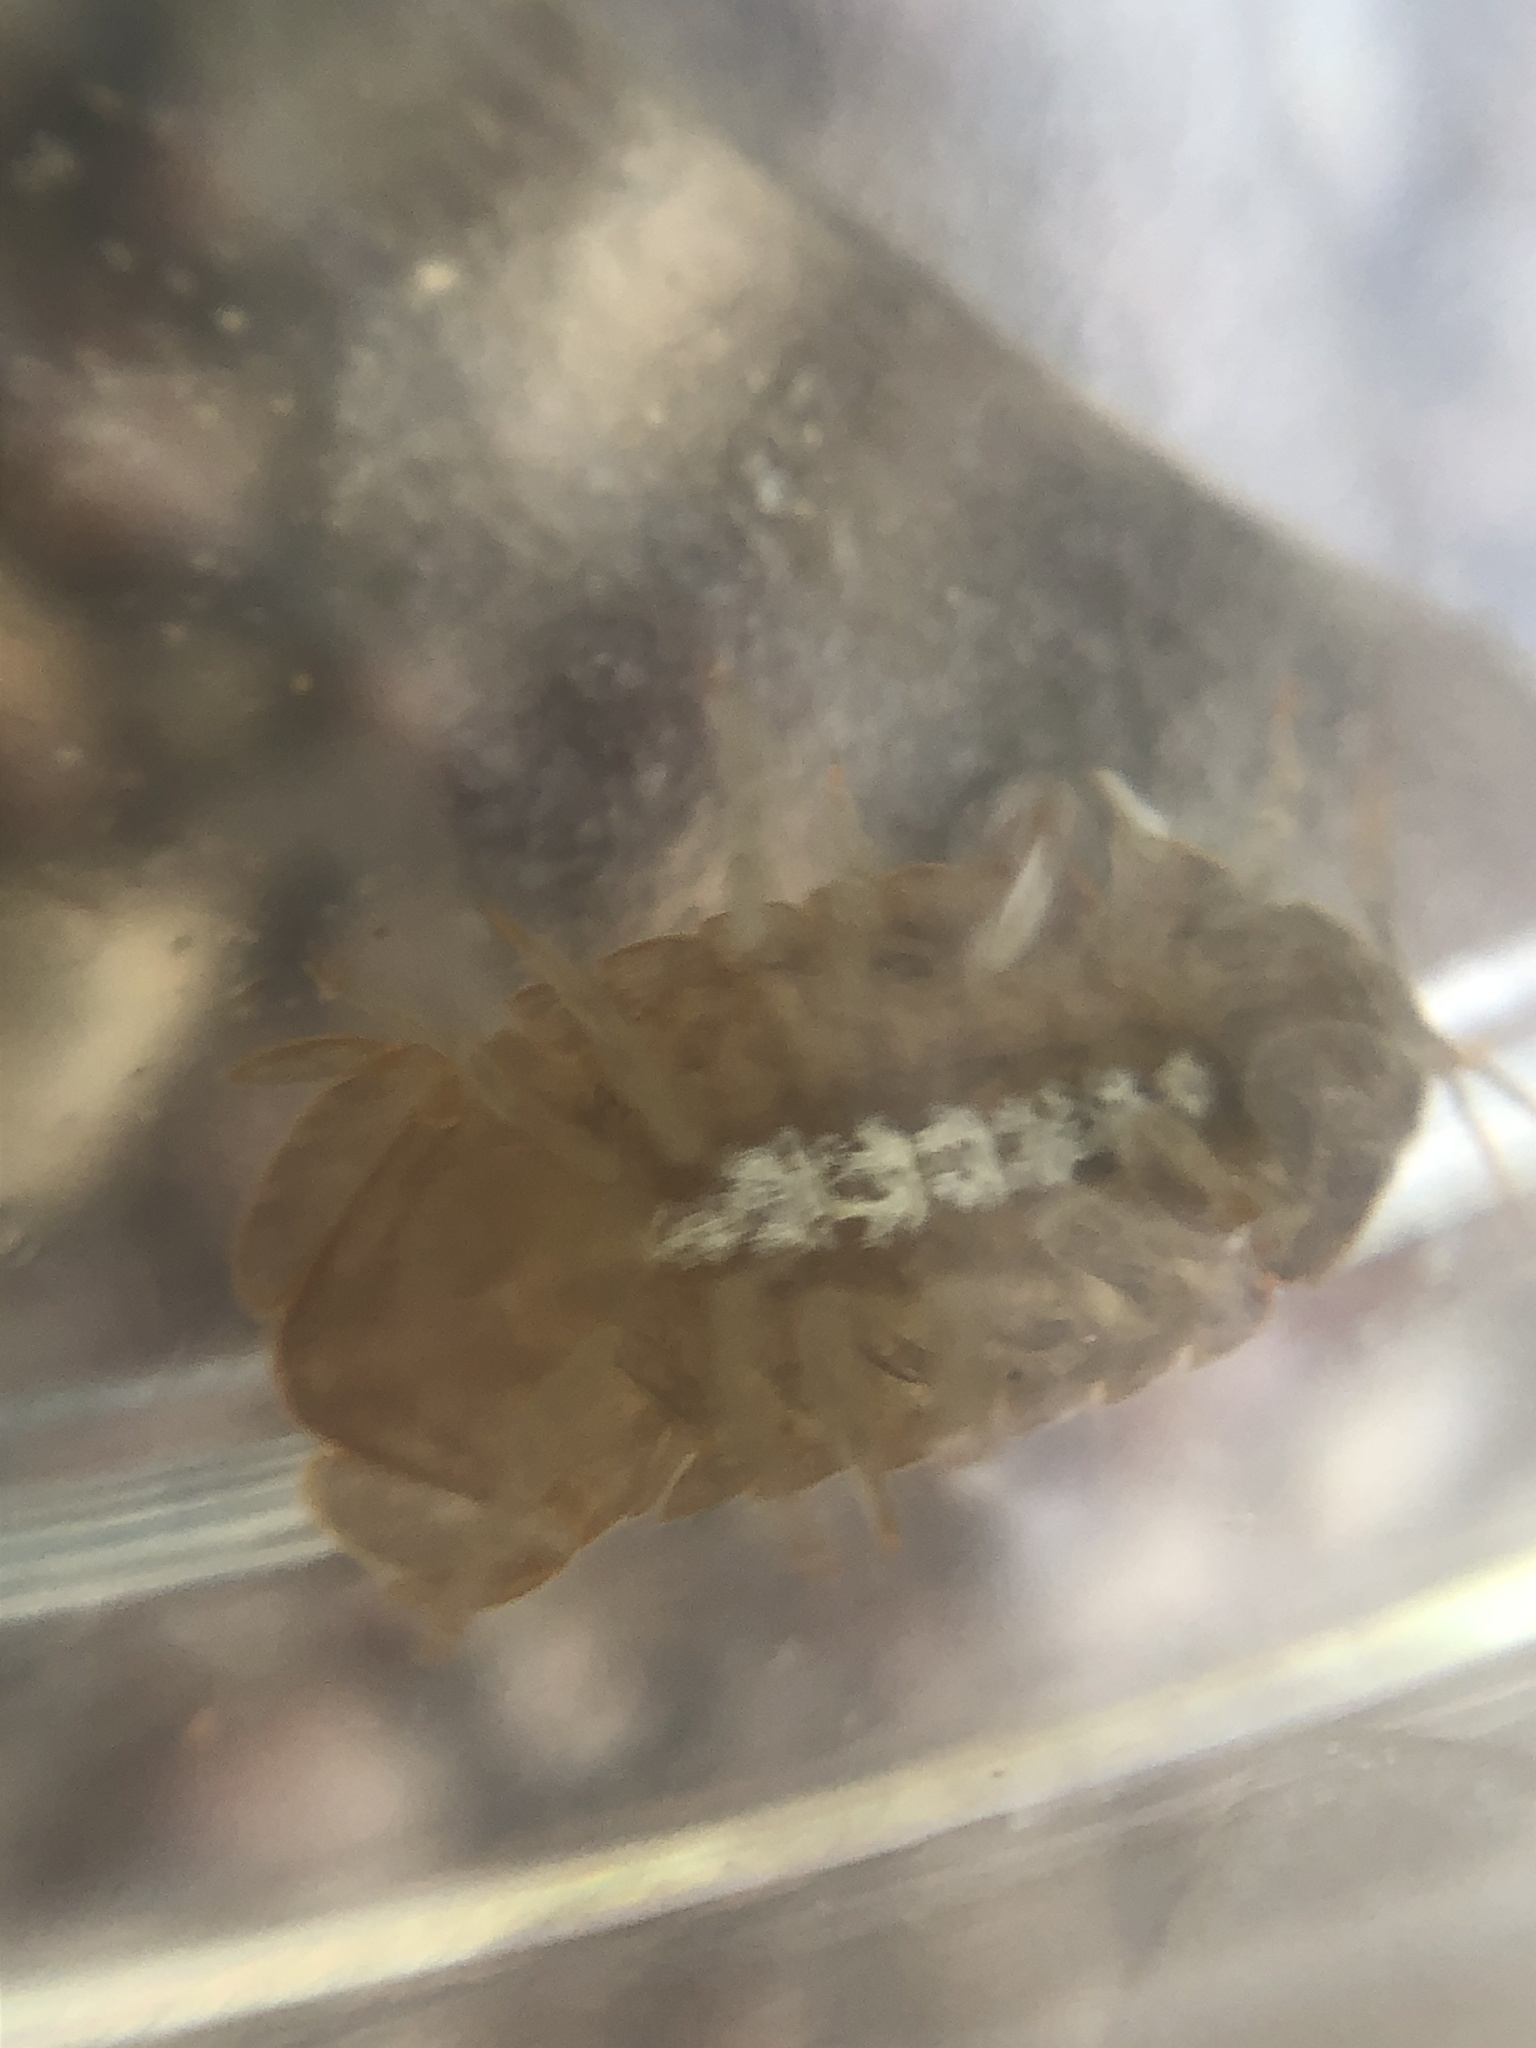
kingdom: Animalia
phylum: Arthropoda
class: Malacostraca
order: Isopoda
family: Sphaeromatidae
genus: Thermosphaeroma
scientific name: Thermosphaeroma thermophilum
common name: Socorro isopod
